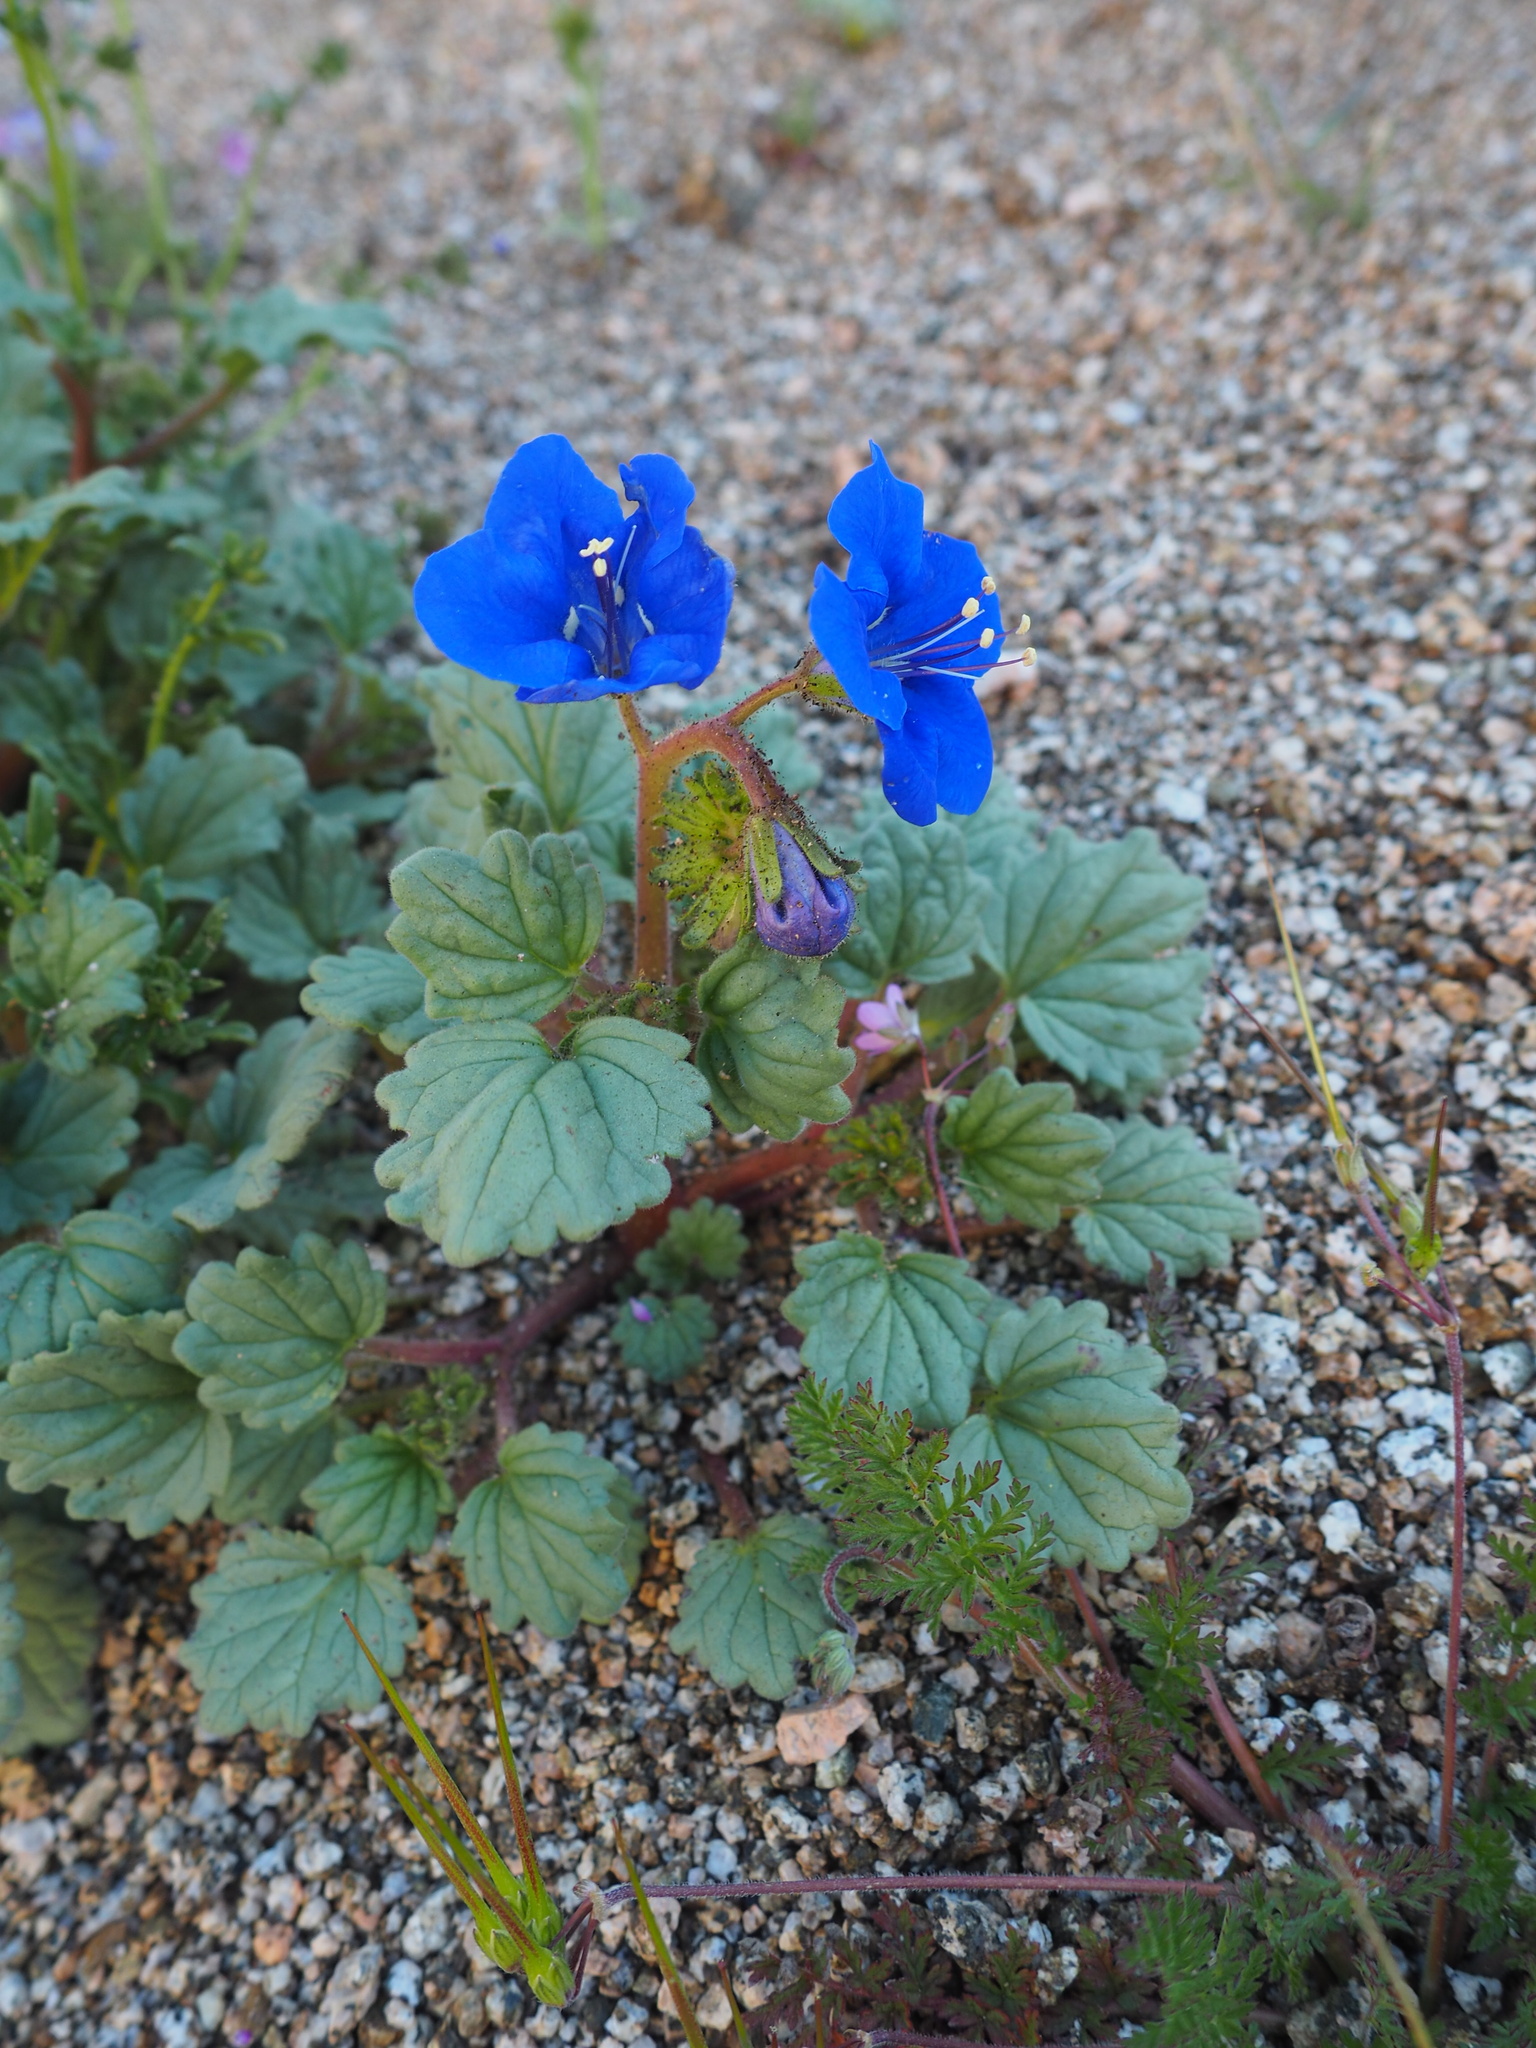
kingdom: Plantae
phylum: Tracheophyta
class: Magnoliopsida
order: Boraginales
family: Hydrophyllaceae
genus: Phacelia
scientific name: Phacelia nashiana
